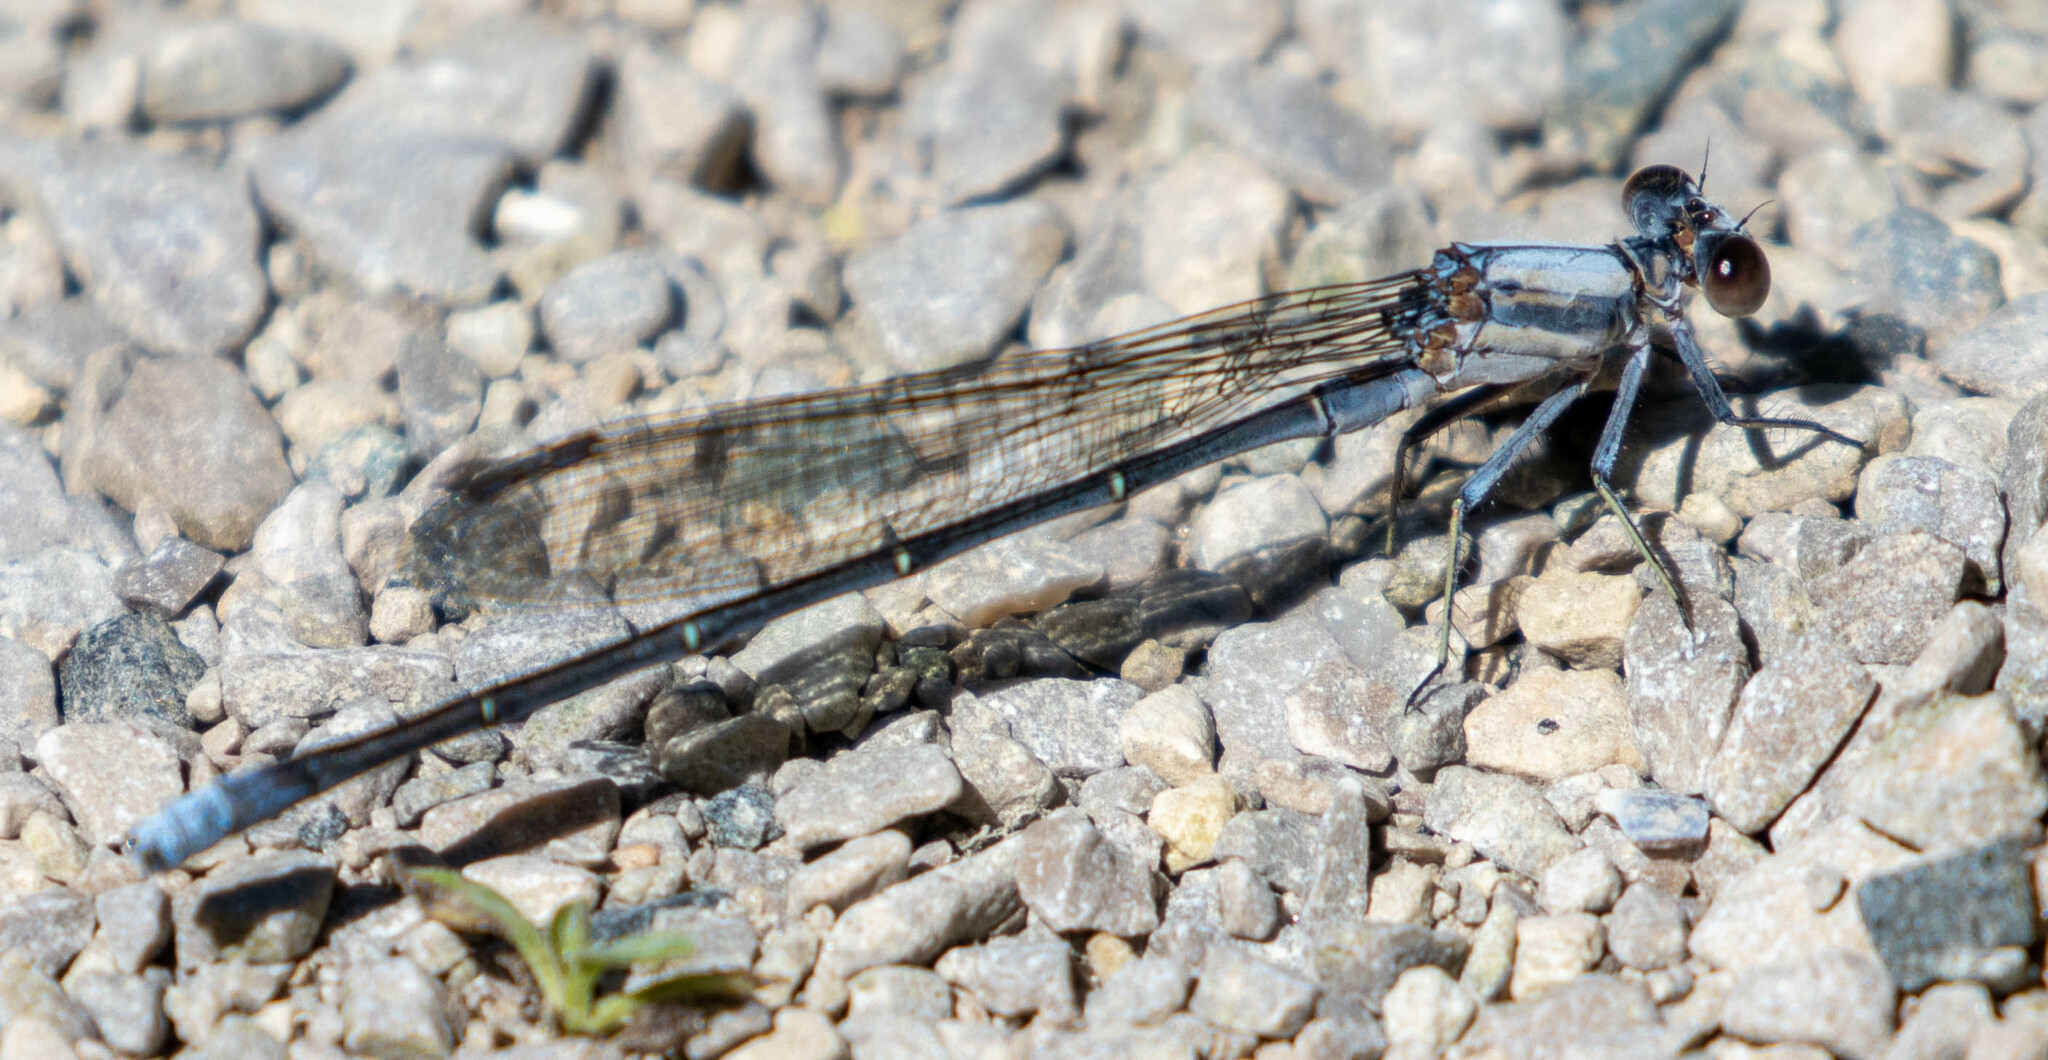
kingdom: Animalia
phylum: Arthropoda
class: Insecta
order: Odonata
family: Coenagrionidae
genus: Argia
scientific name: Argia moesta
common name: Powdered dancer
